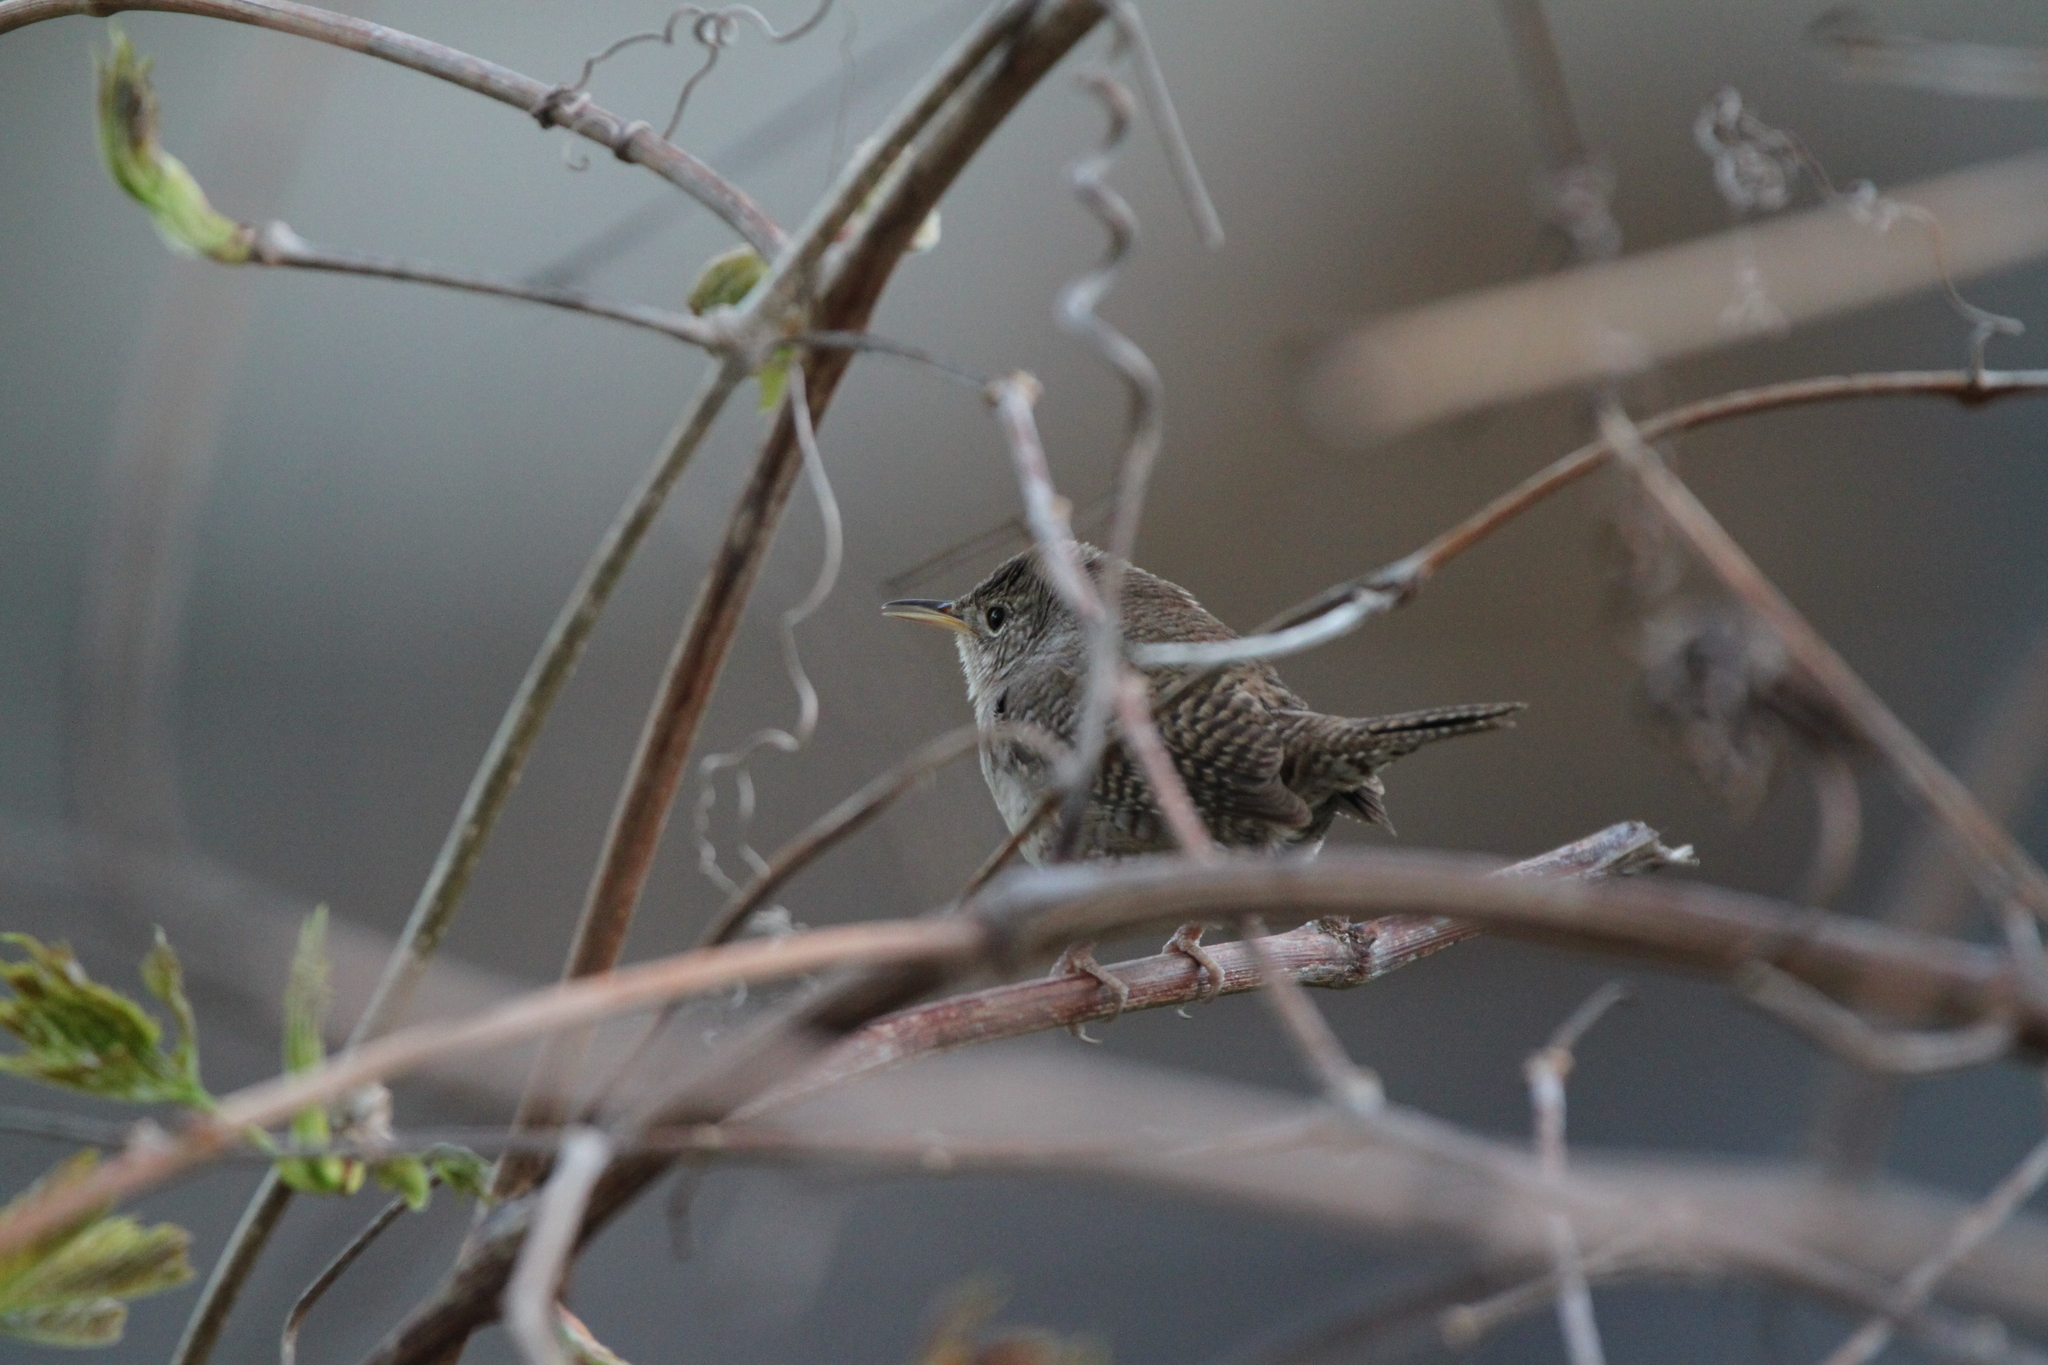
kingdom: Animalia
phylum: Chordata
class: Aves
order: Passeriformes
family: Troglodytidae
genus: Troglodytes
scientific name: Troglodytes aedon
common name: House wren
